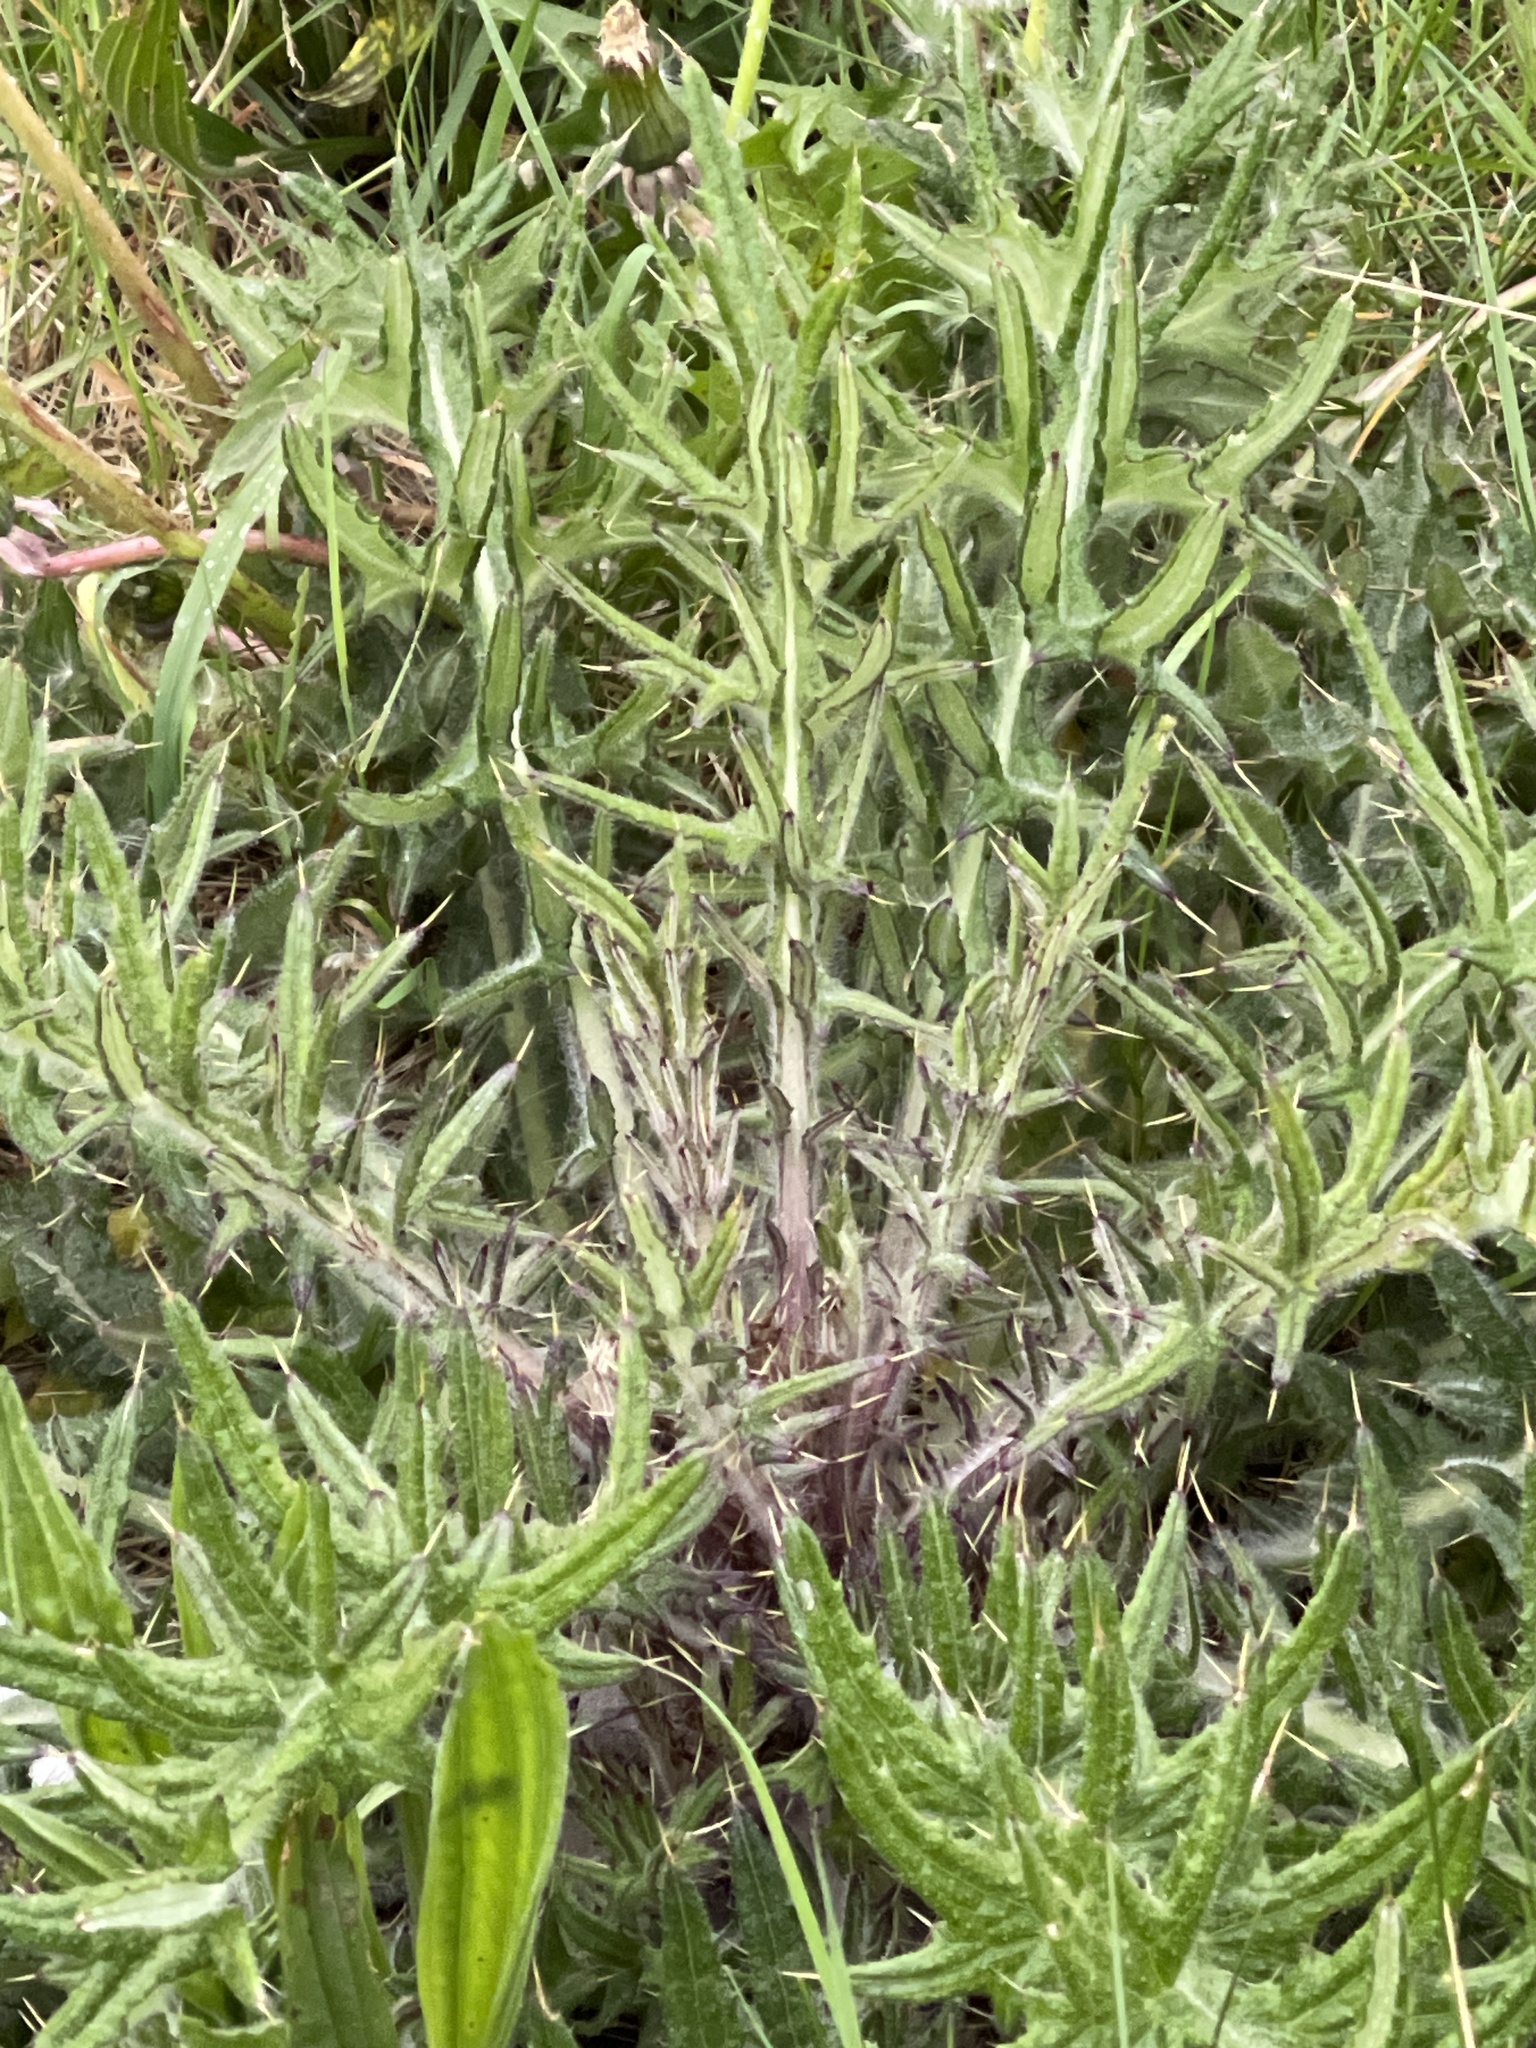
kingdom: Plantae
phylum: Tracheophyta
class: Magnoliopsida
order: Asterales
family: Asteraceae
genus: Cirsium
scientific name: Cirsium vulgare
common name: Bull thistle
